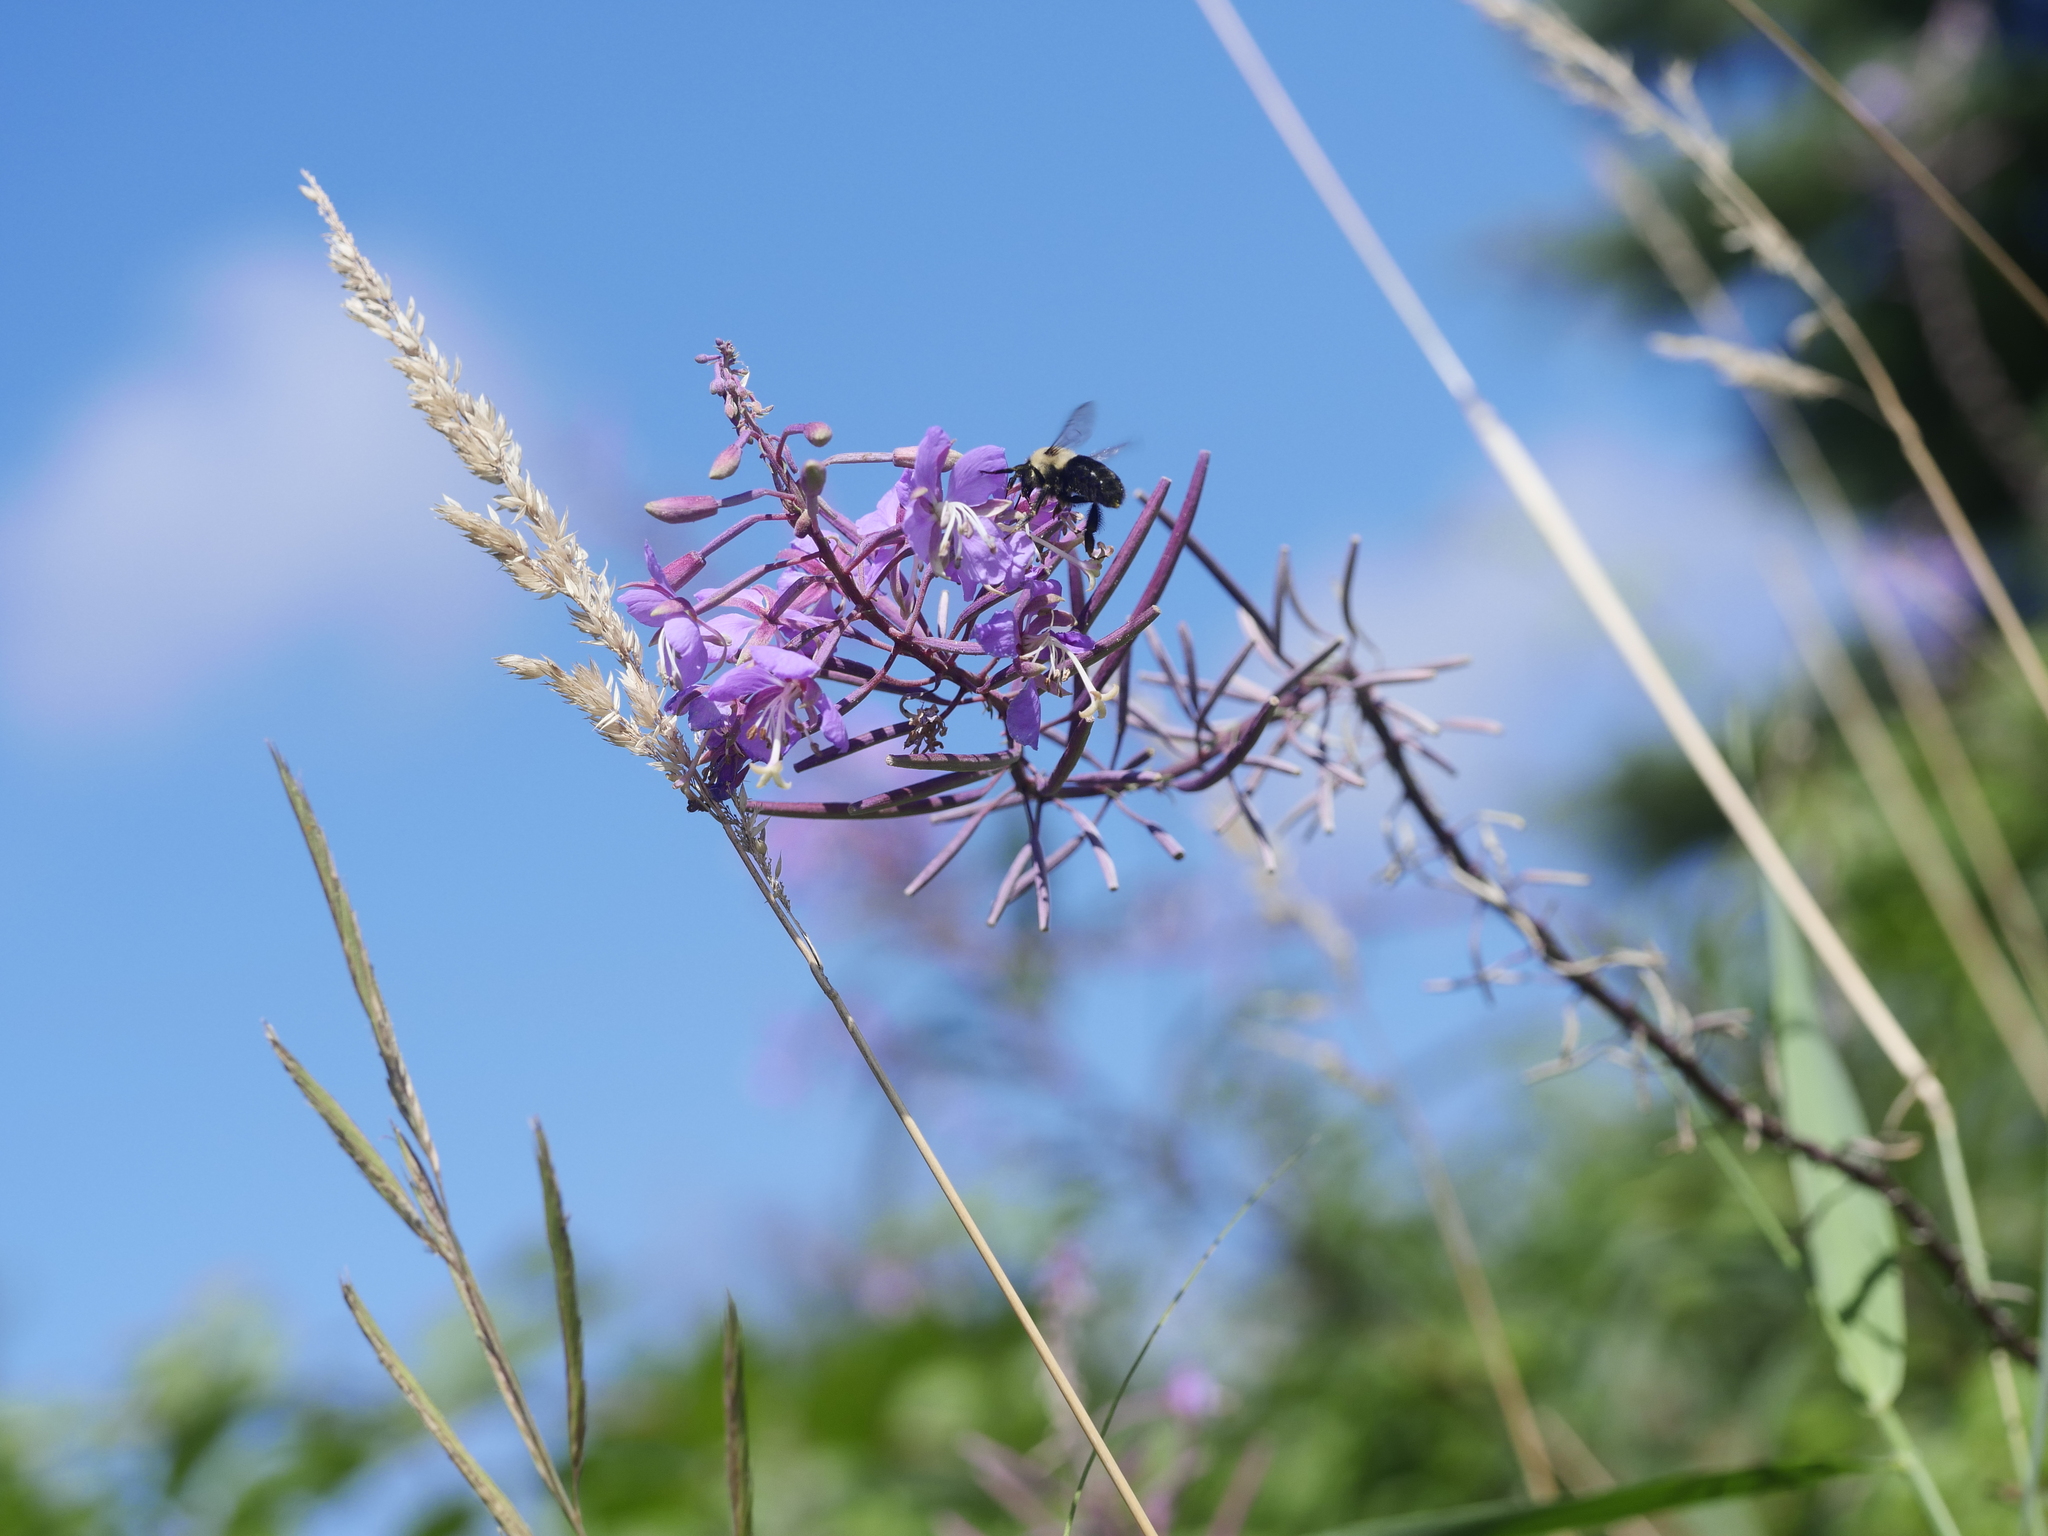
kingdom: Plantae
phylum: Tracheophyta
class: Magnoliopsida
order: Myrtales
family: Onagraceae
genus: Chamaenerion
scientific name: Chamaenerion angustifolium
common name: Fireweed
